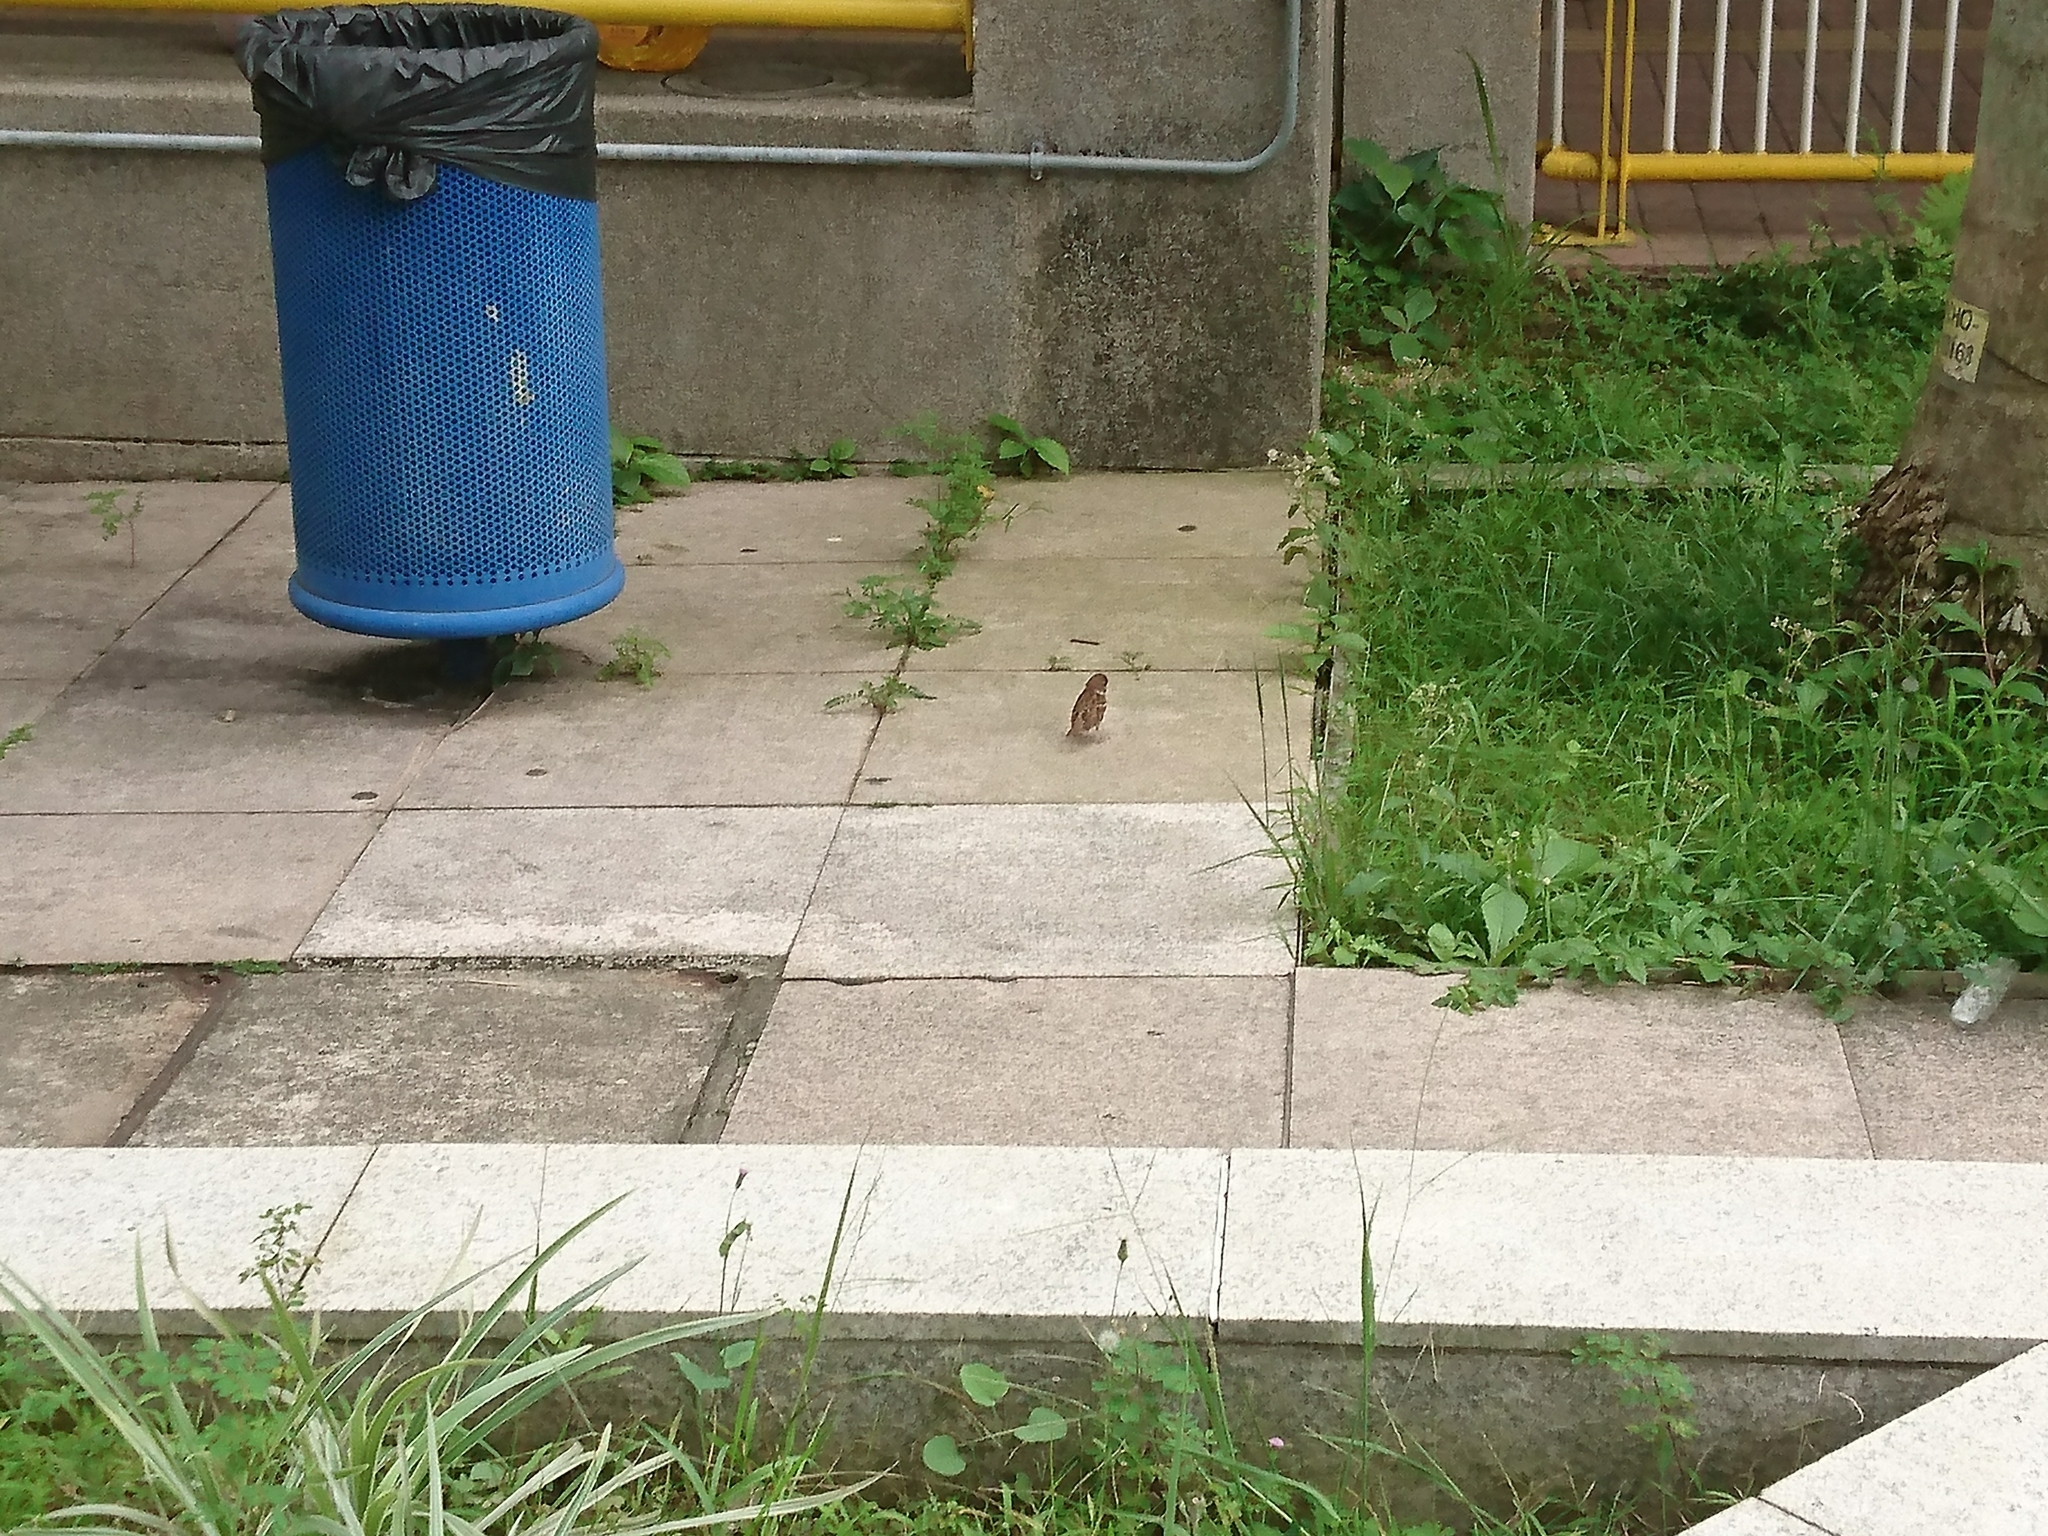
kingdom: Animalia
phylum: Chordata
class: Aves
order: Passeriformes
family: Passeridae
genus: Passer
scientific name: Passer montanus
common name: Eurasian tree sparrow
